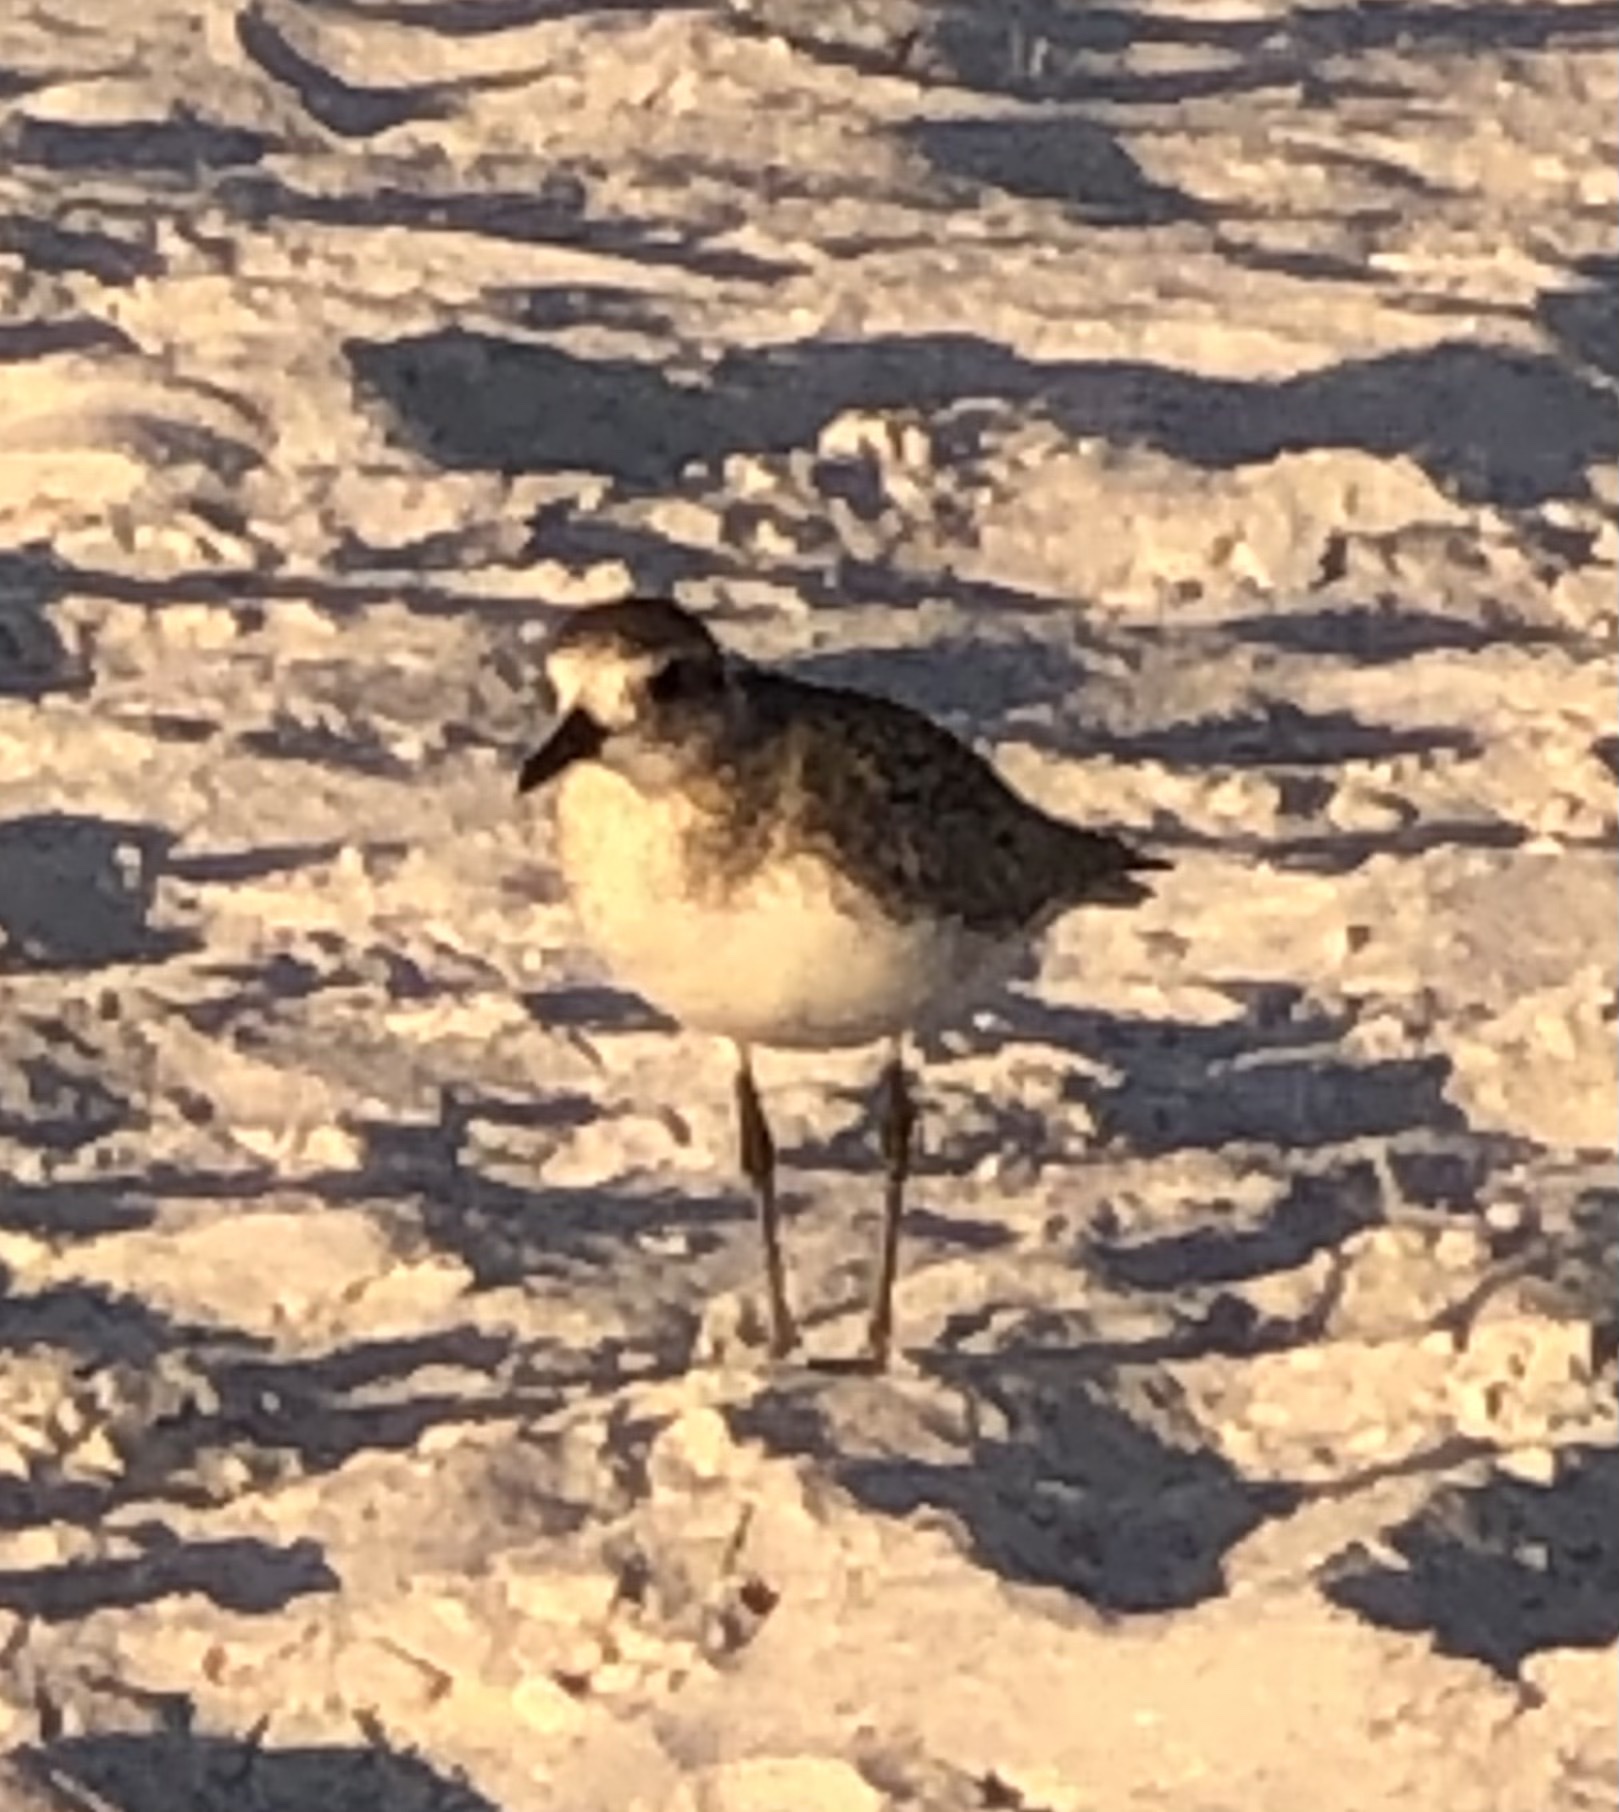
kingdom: Animalia
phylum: Chordata
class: Aves
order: Charadriiformes
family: Charadriidae
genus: Pluvialis
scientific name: Pluvialis squatarola
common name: Grey plover
